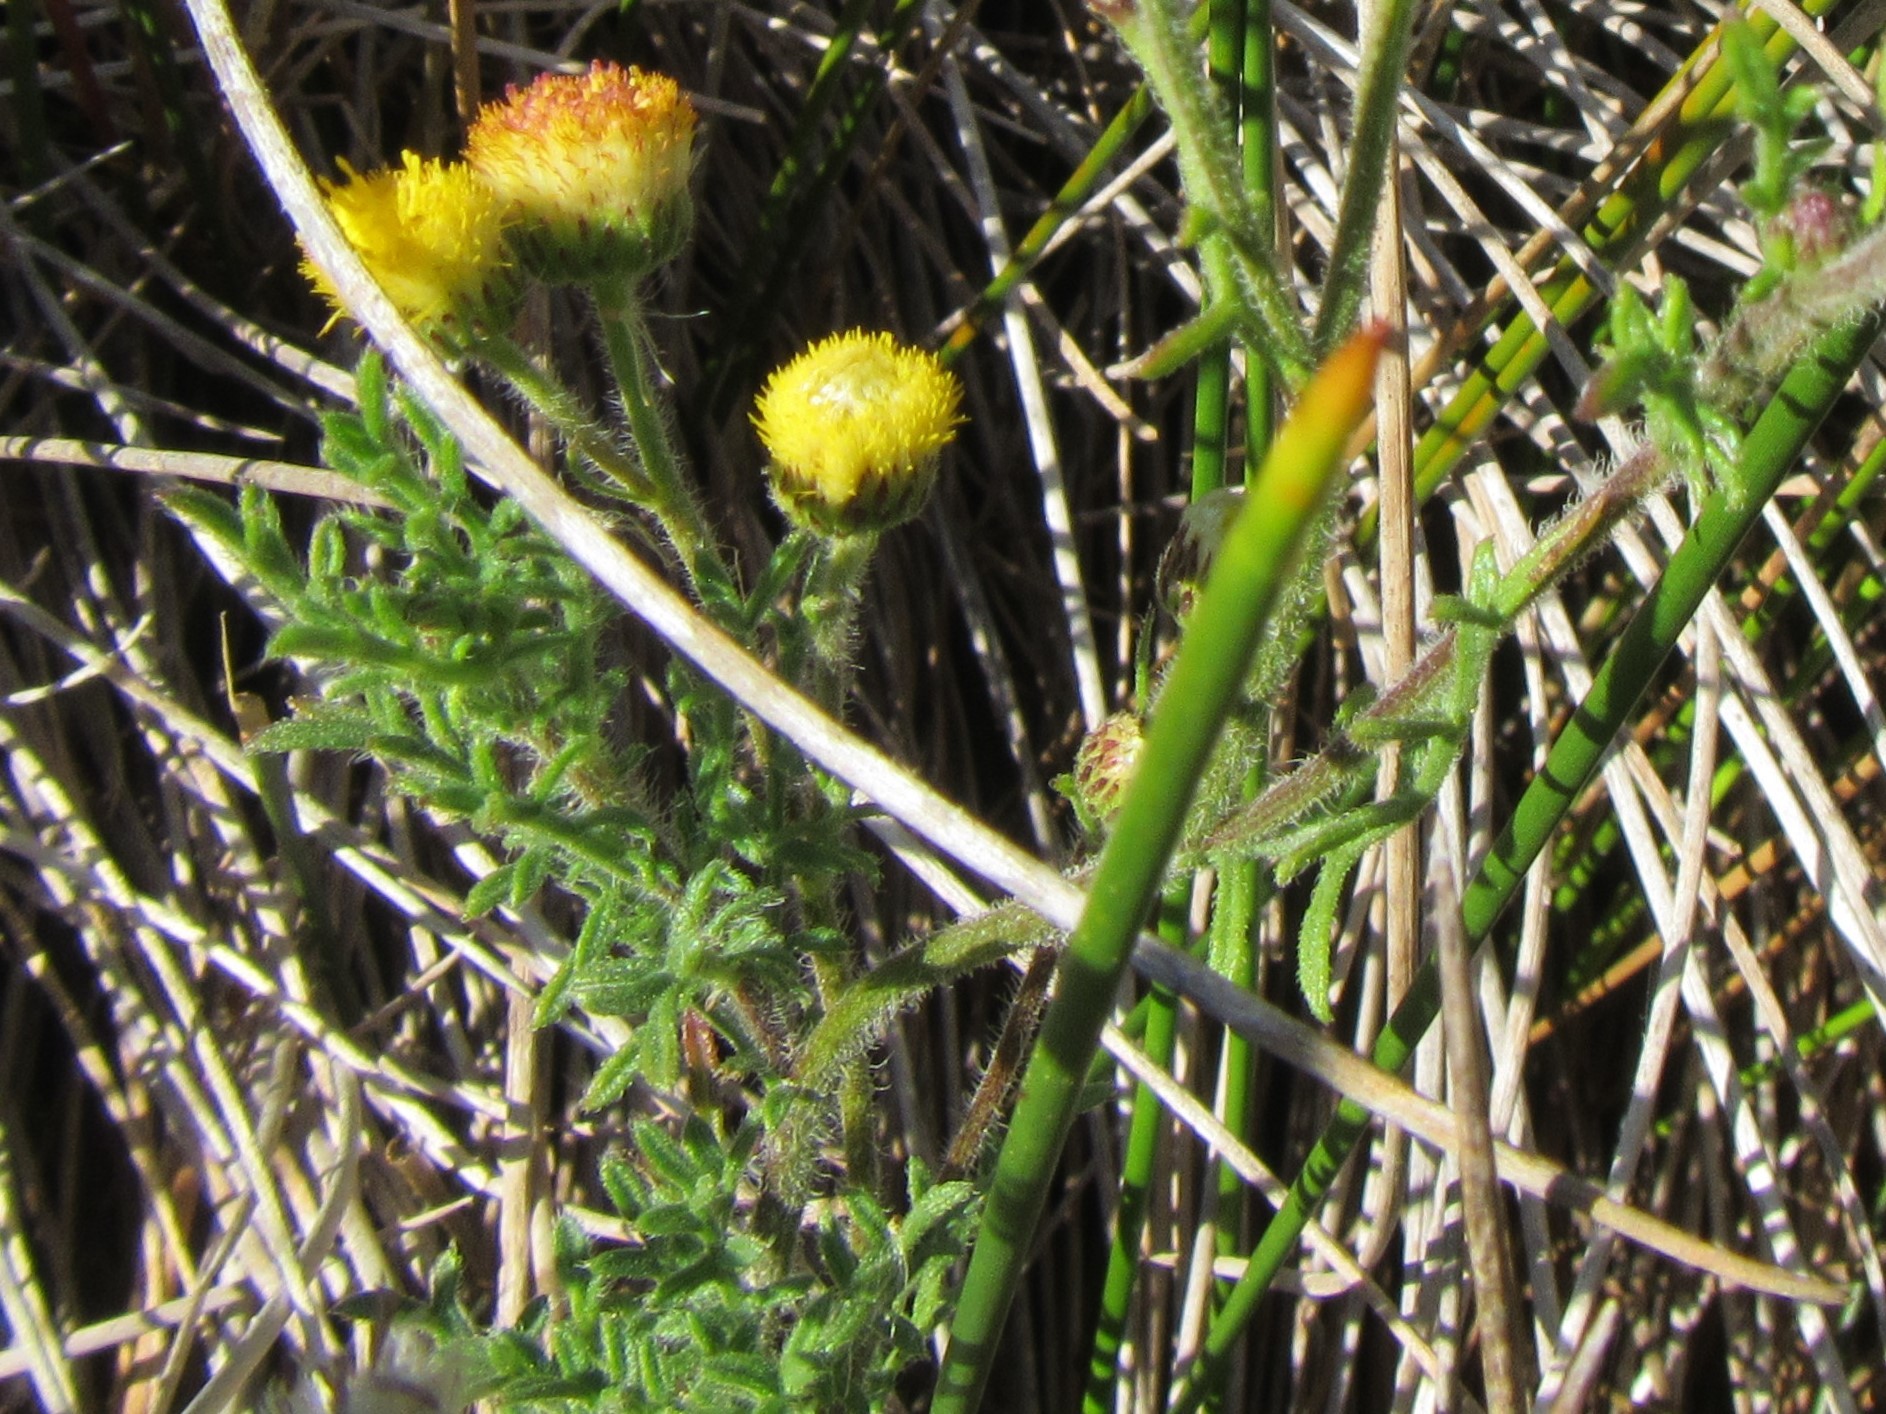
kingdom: Plantae
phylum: Tracheophyta
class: Magnoliopsida
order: Asterales
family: Asteraceae
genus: Nidorella
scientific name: Nidorella pinnatifida
